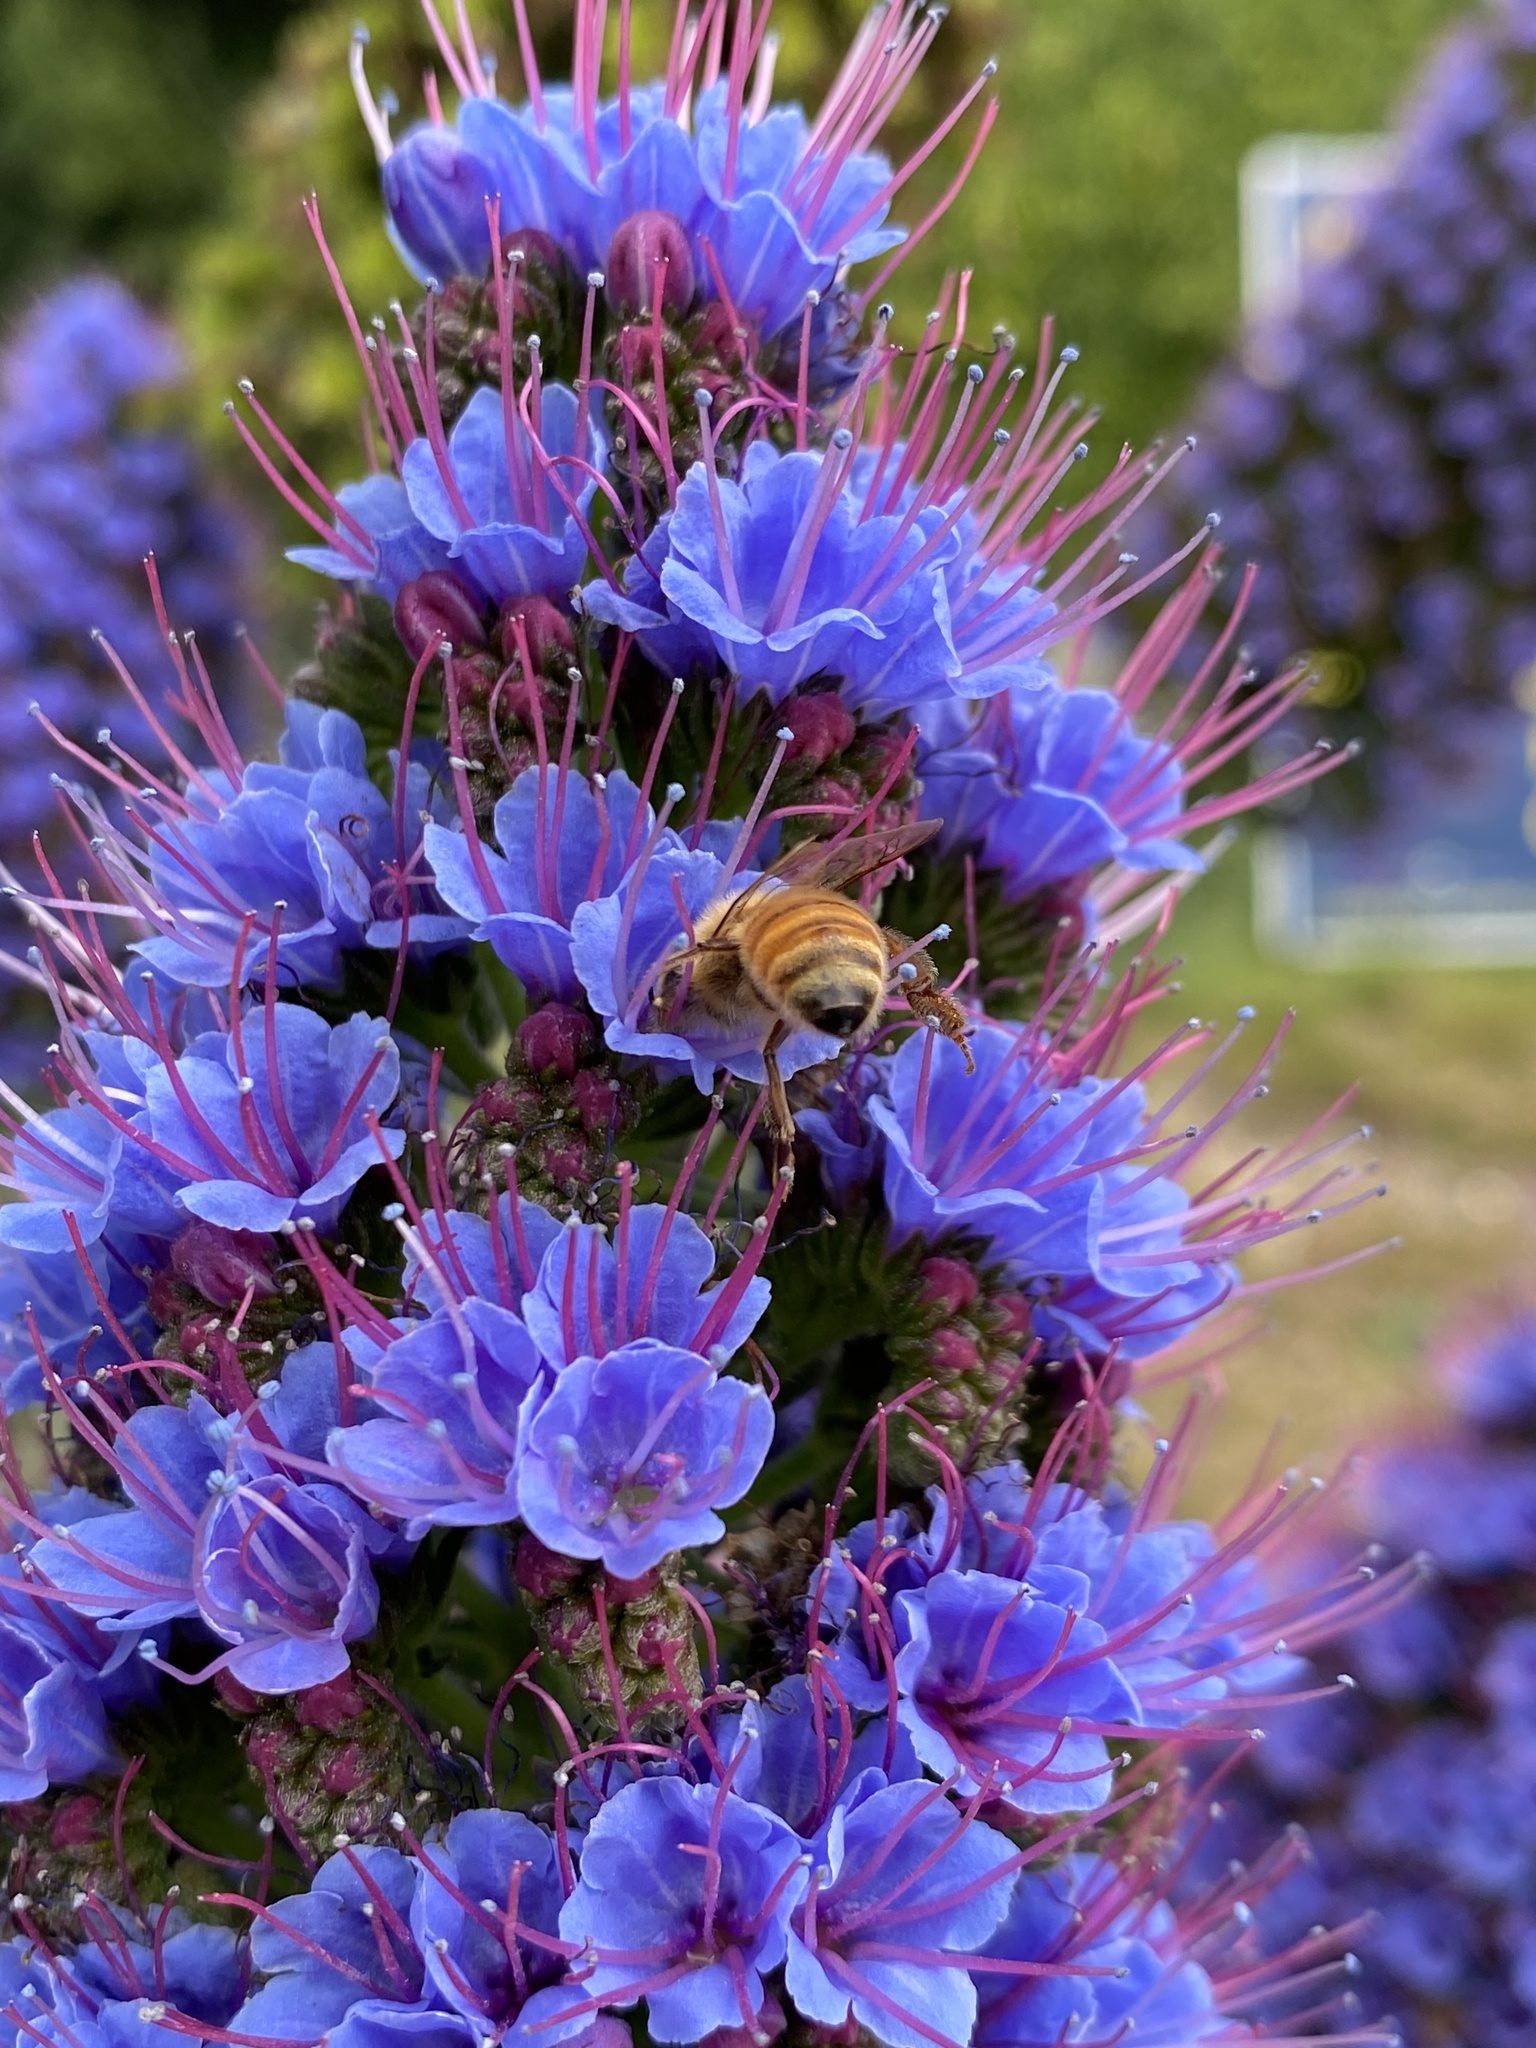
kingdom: Animalia
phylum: Arthropoda
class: Insecta
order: Hymenoptera
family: Apidae
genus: Apis
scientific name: Apis mellifera
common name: Honey bee
